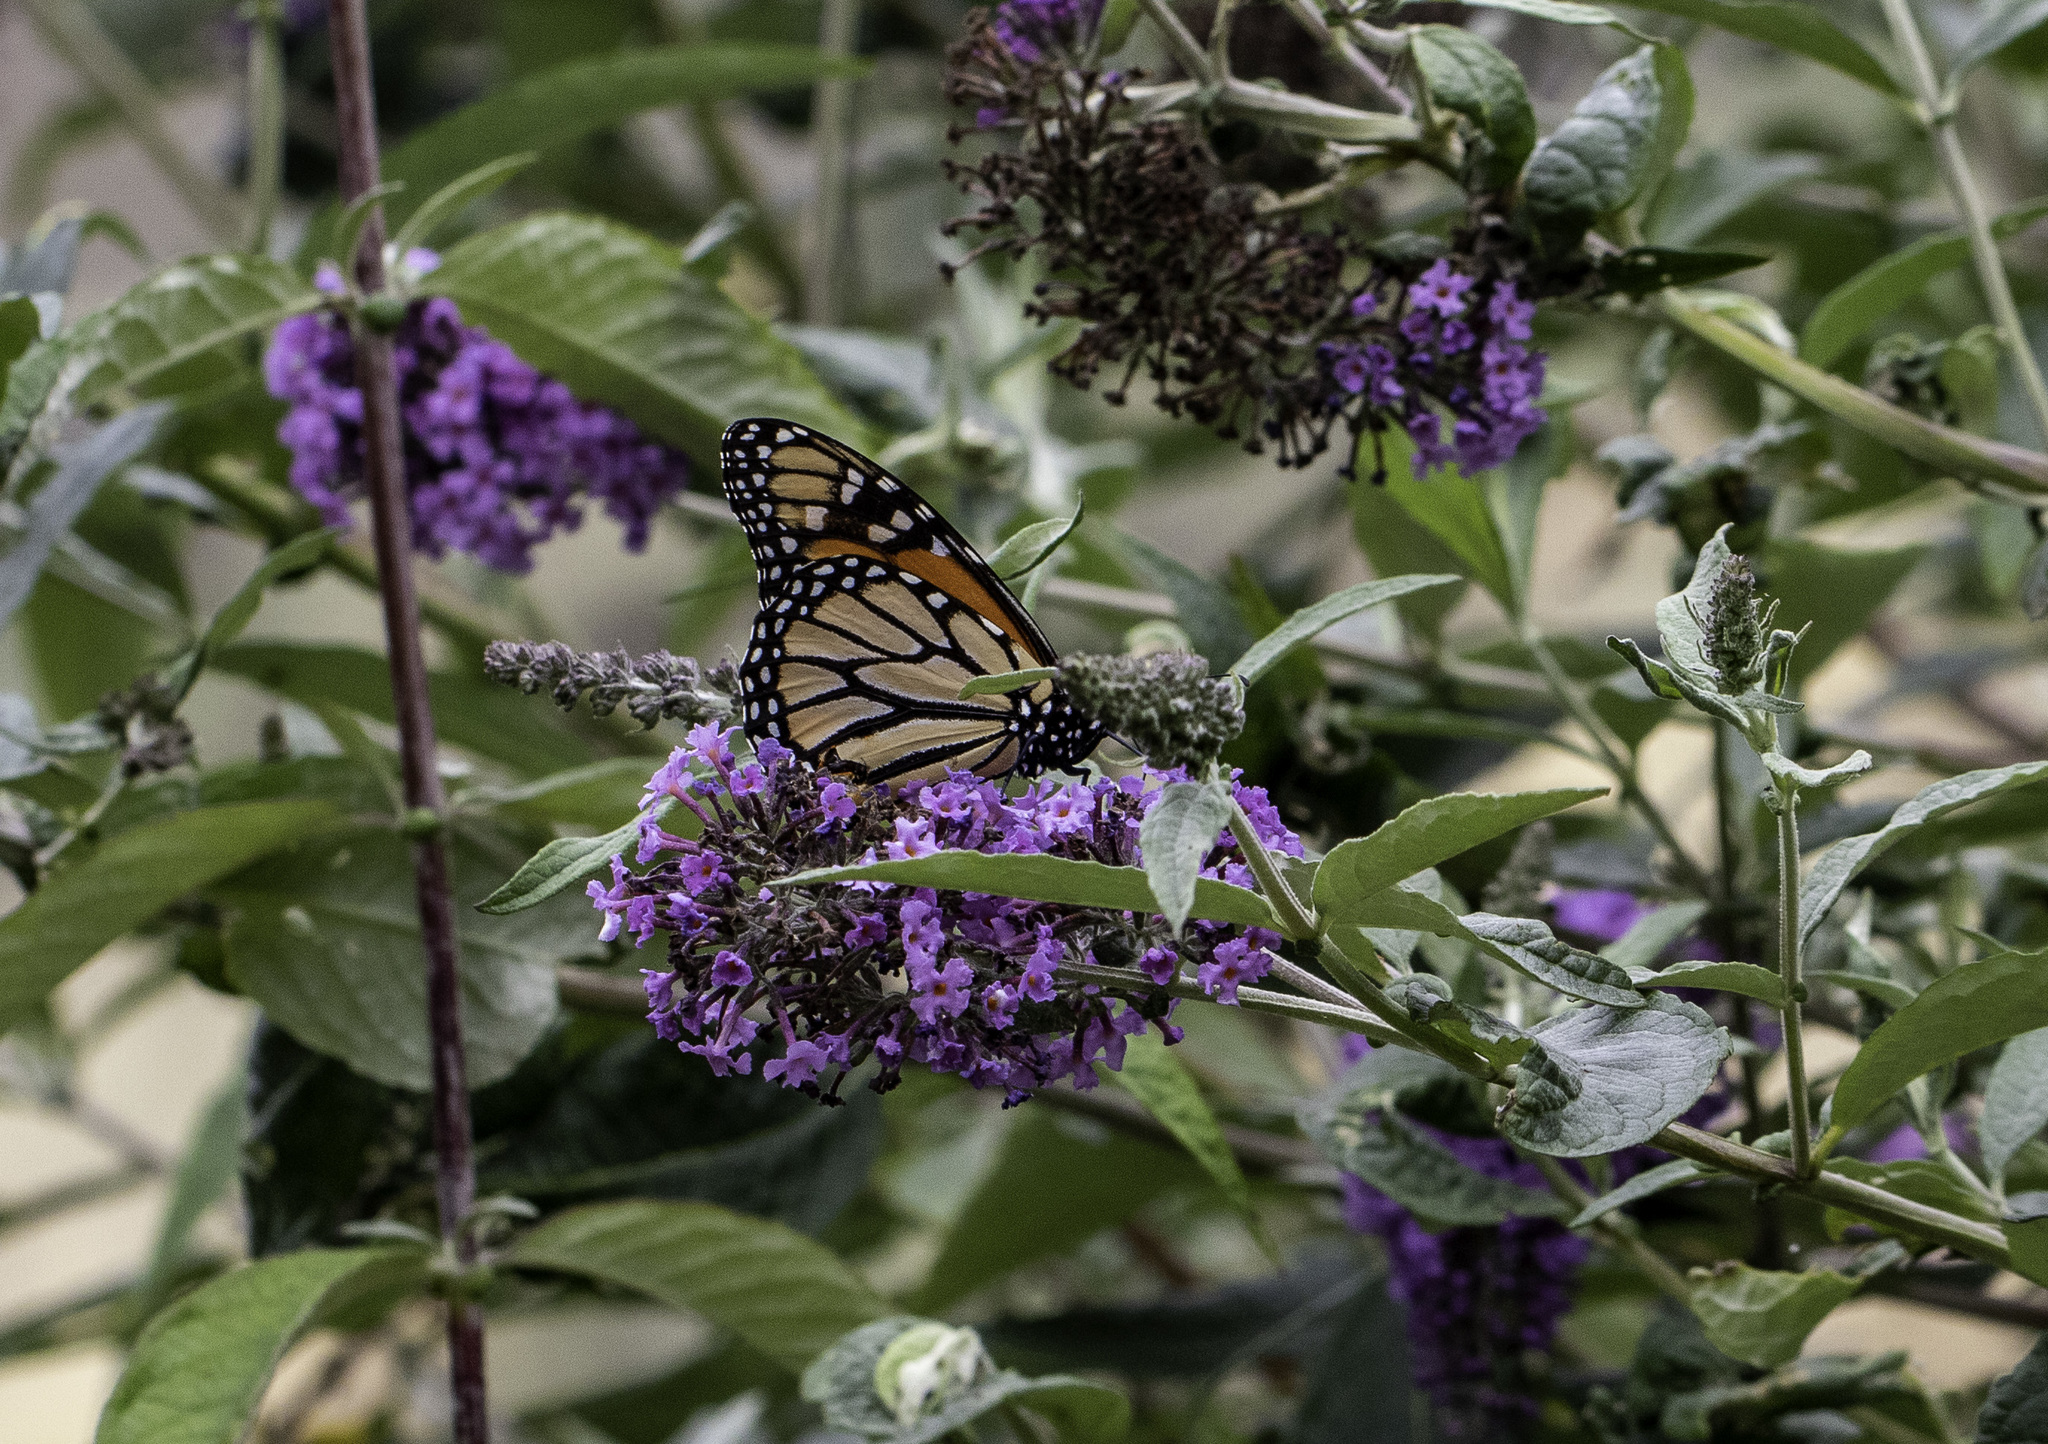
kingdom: Animalia
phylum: Arthropoda
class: Insecta
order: Lepidoptera
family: Nymphalidae
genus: Danaus
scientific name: Danaus plexippus
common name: Monarch
